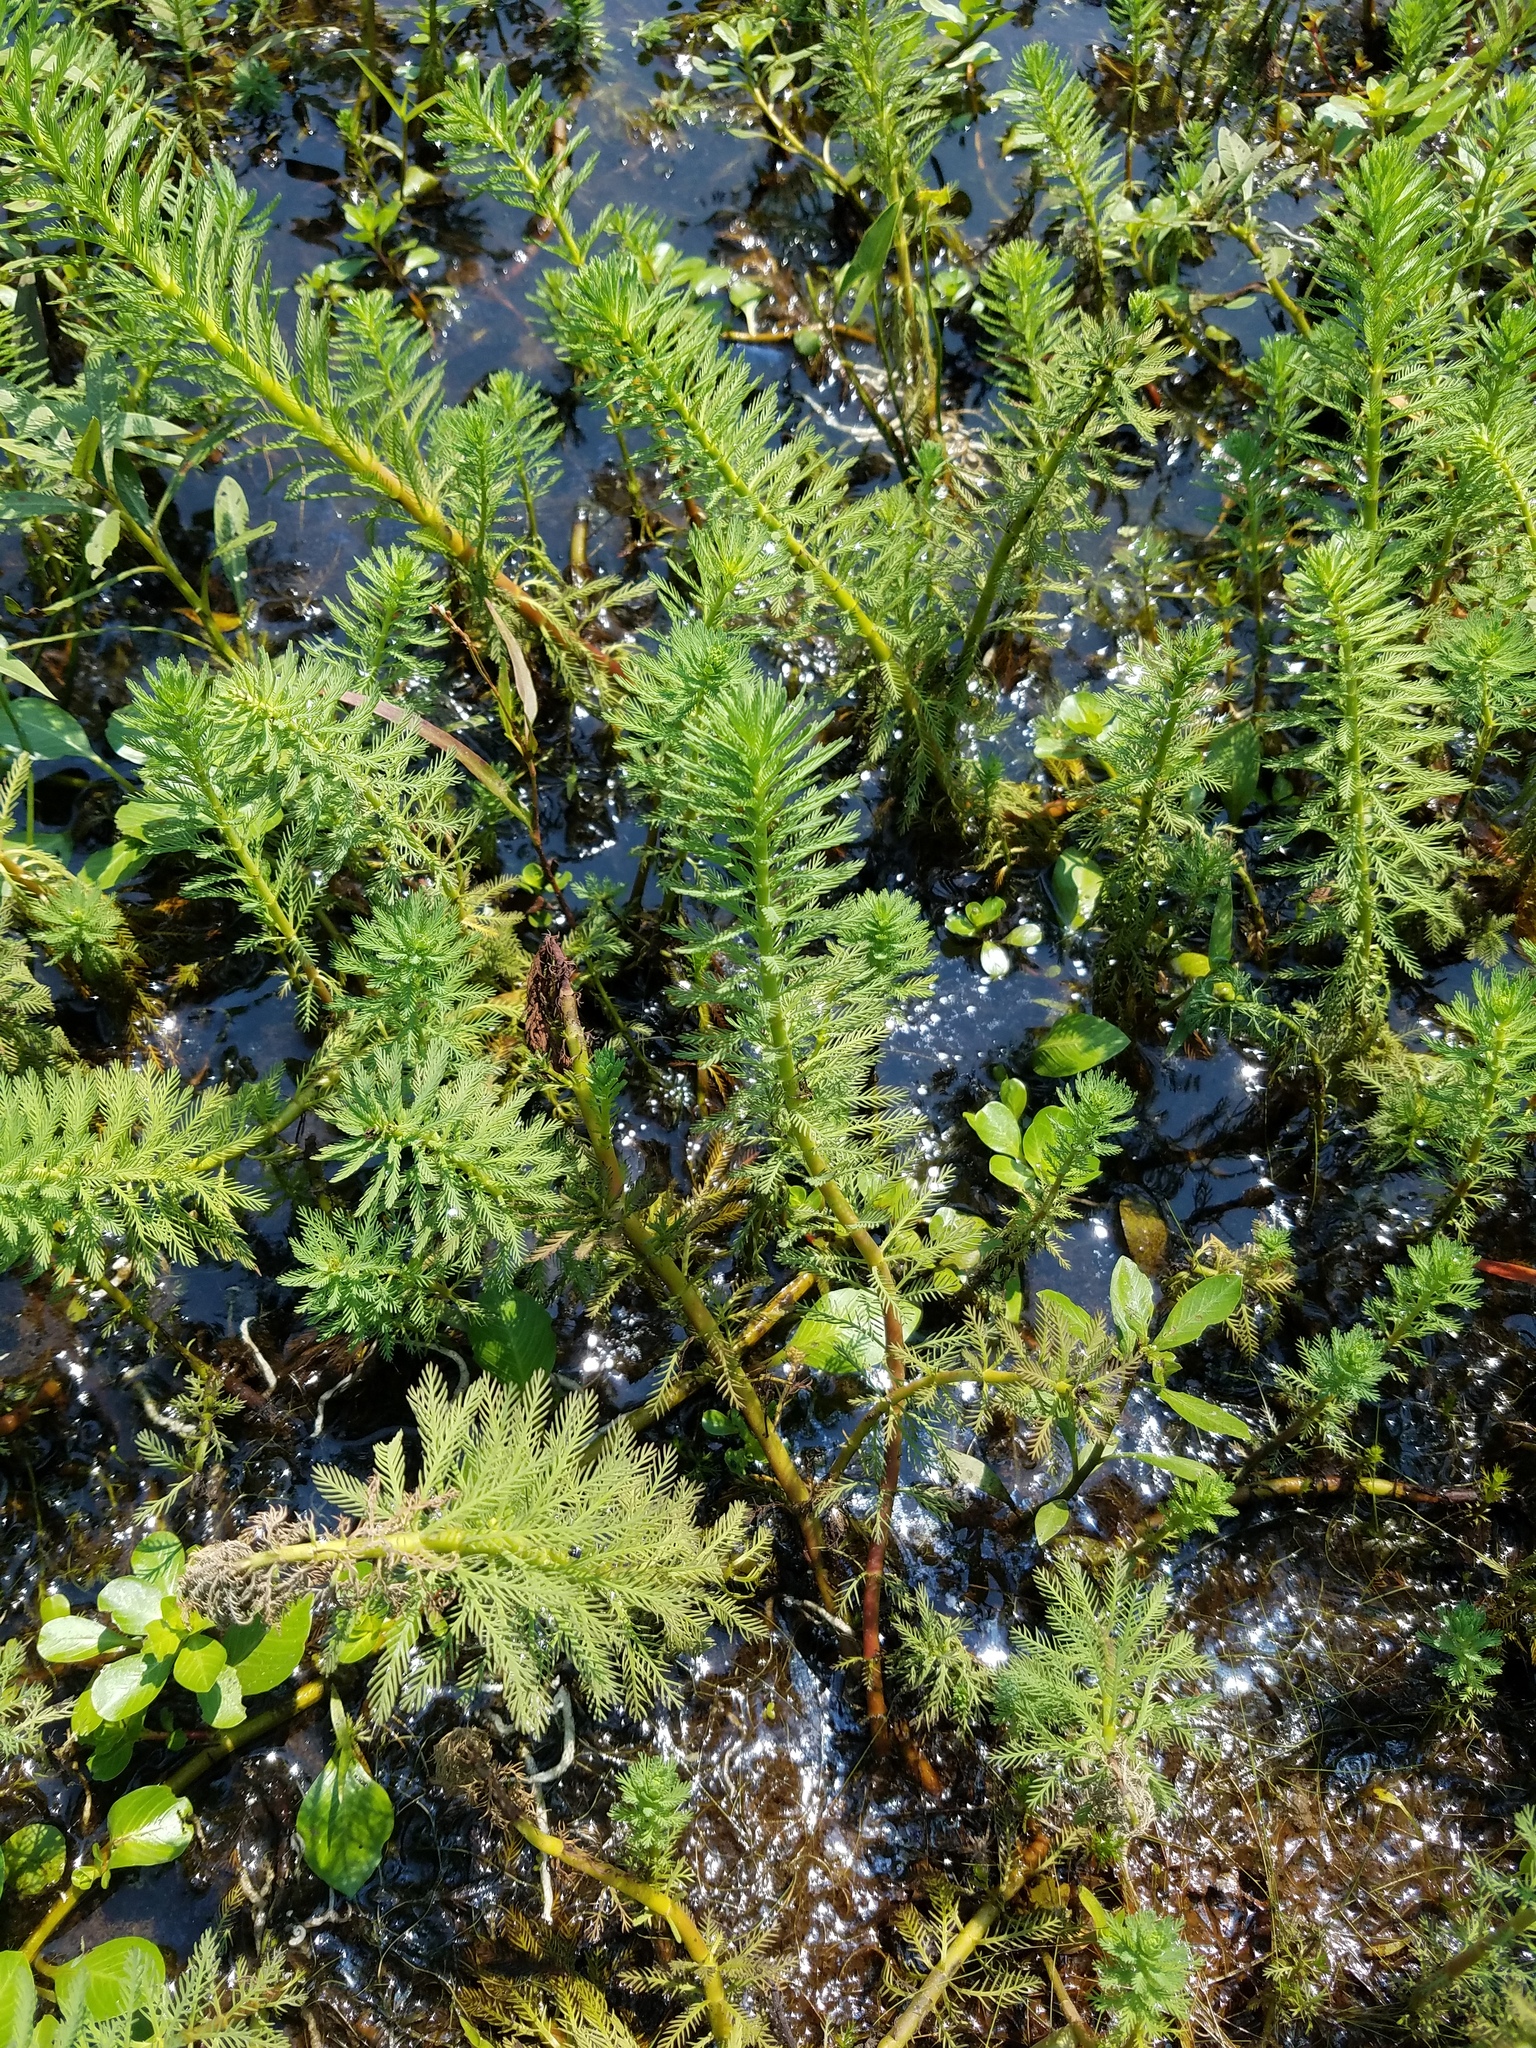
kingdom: Plantae
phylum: Tracheophyta
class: Magnoliopsida
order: Saxifragales
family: Haloragaceae
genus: Myriophyllum
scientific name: Myriophyllum aquaticum
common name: Parrot's feather
